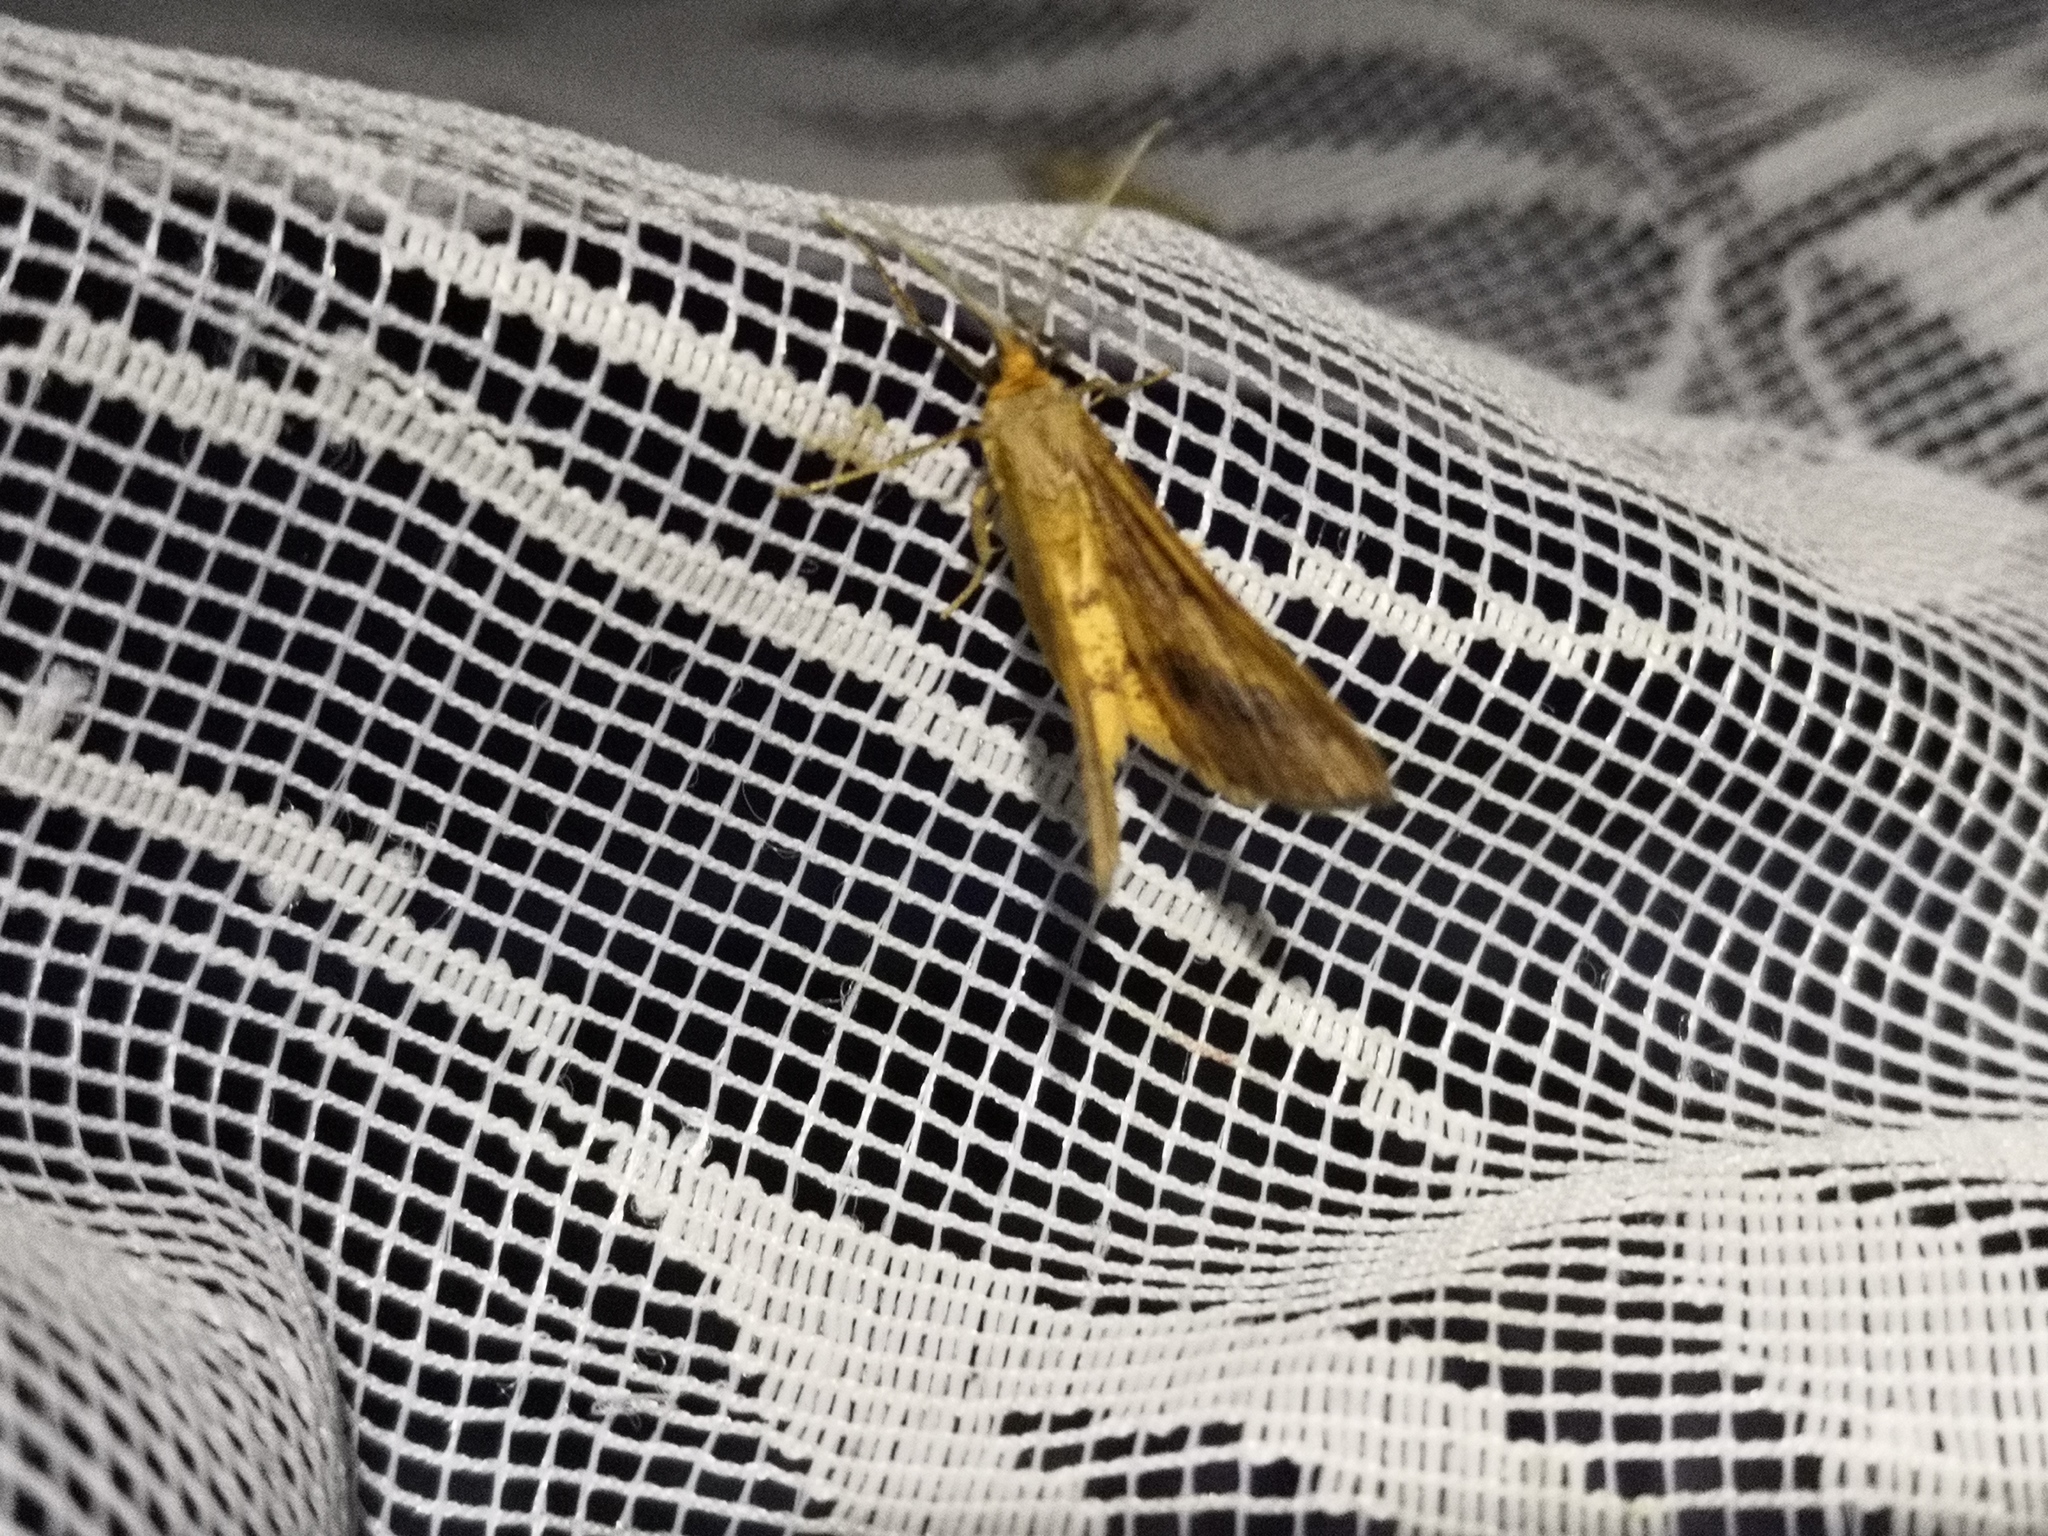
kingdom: Animalia
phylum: Arthropoda
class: Insecta
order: Lepidoptera
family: Geometridae
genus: Tephrina
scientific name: Tephrina arenacearia
